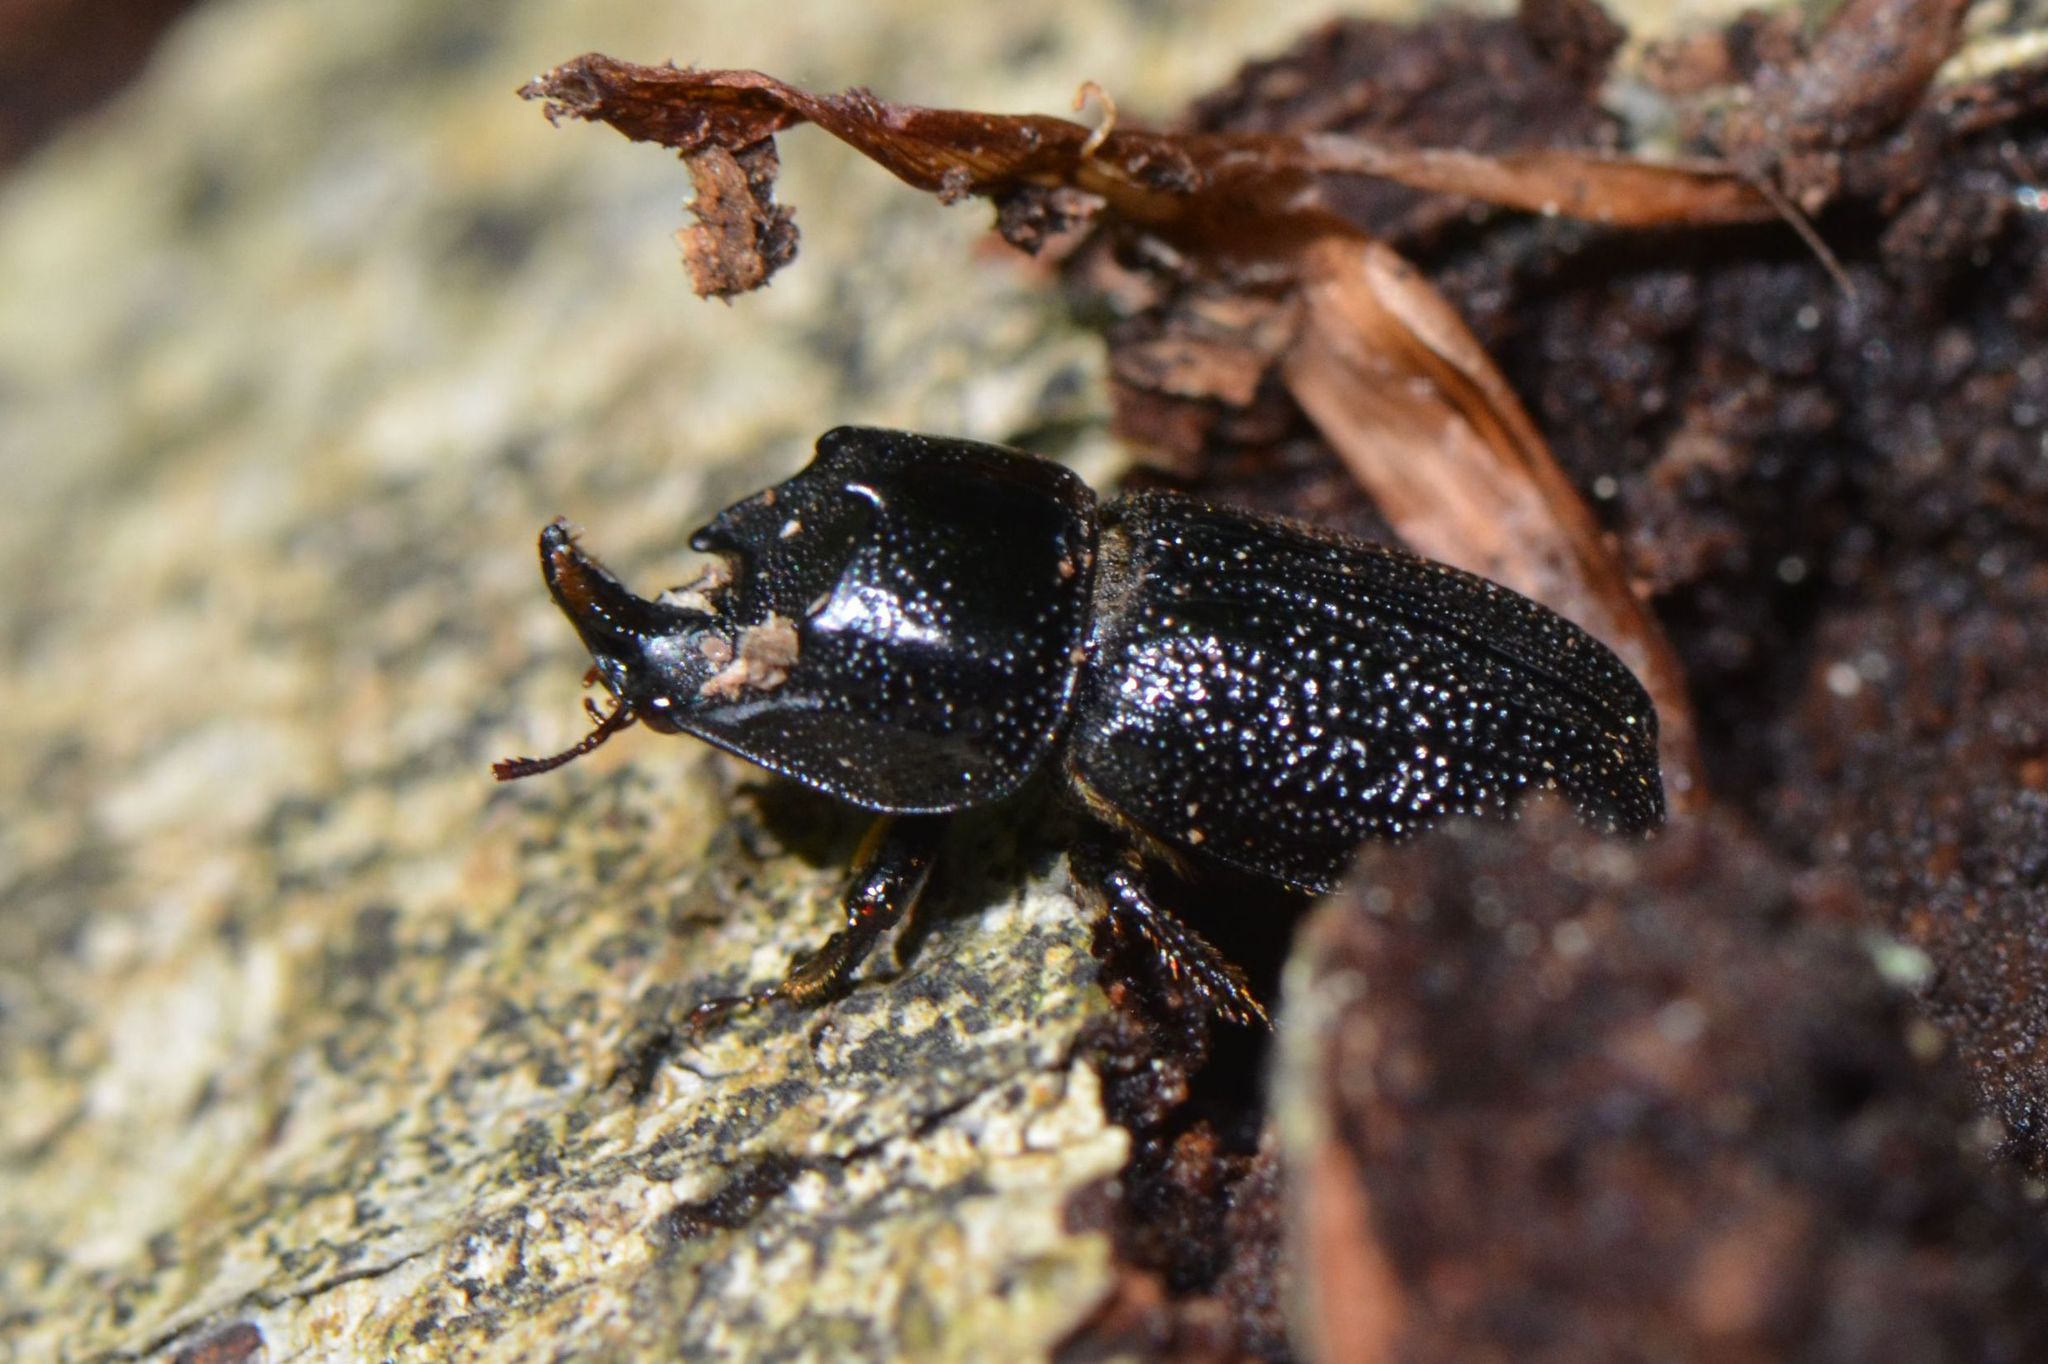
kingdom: Animalia
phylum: Arthropoda
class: Insecta
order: Coleoptera
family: Lucanidae
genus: Sinodendron
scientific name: Sinodendron cylindricum
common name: Rhinoceros beetle
